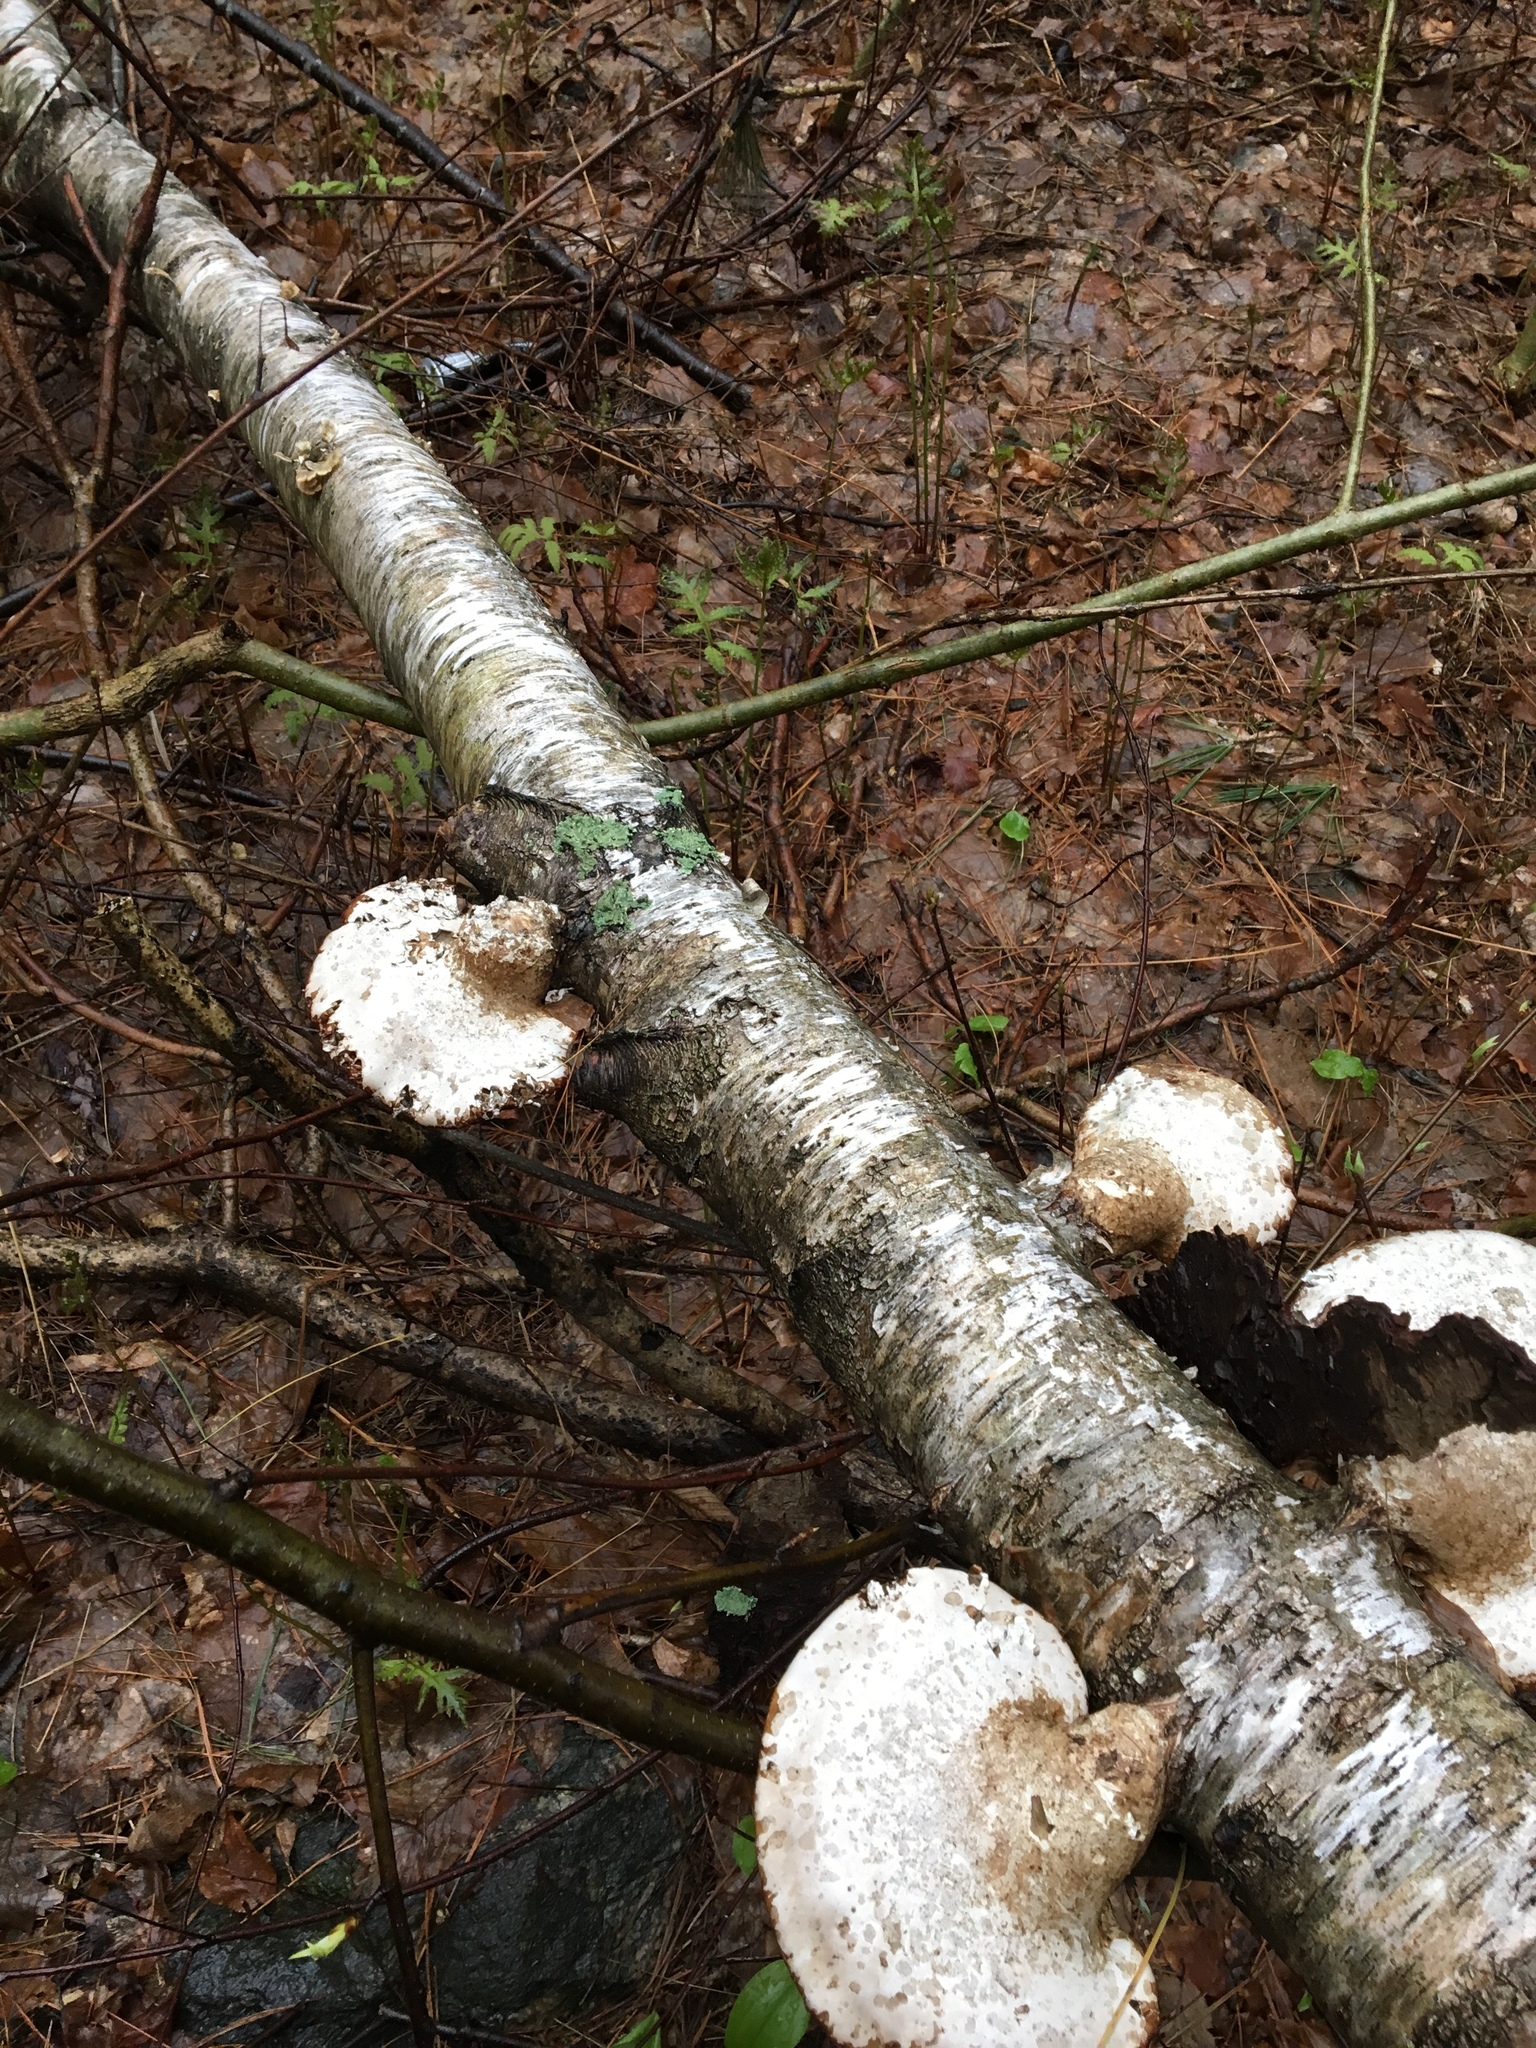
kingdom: Plantae
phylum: Tracheophyta
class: Magnoliopsida
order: Fagales
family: Betulaceae
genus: Betula
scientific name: Betula papyrifera
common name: Paper birch
